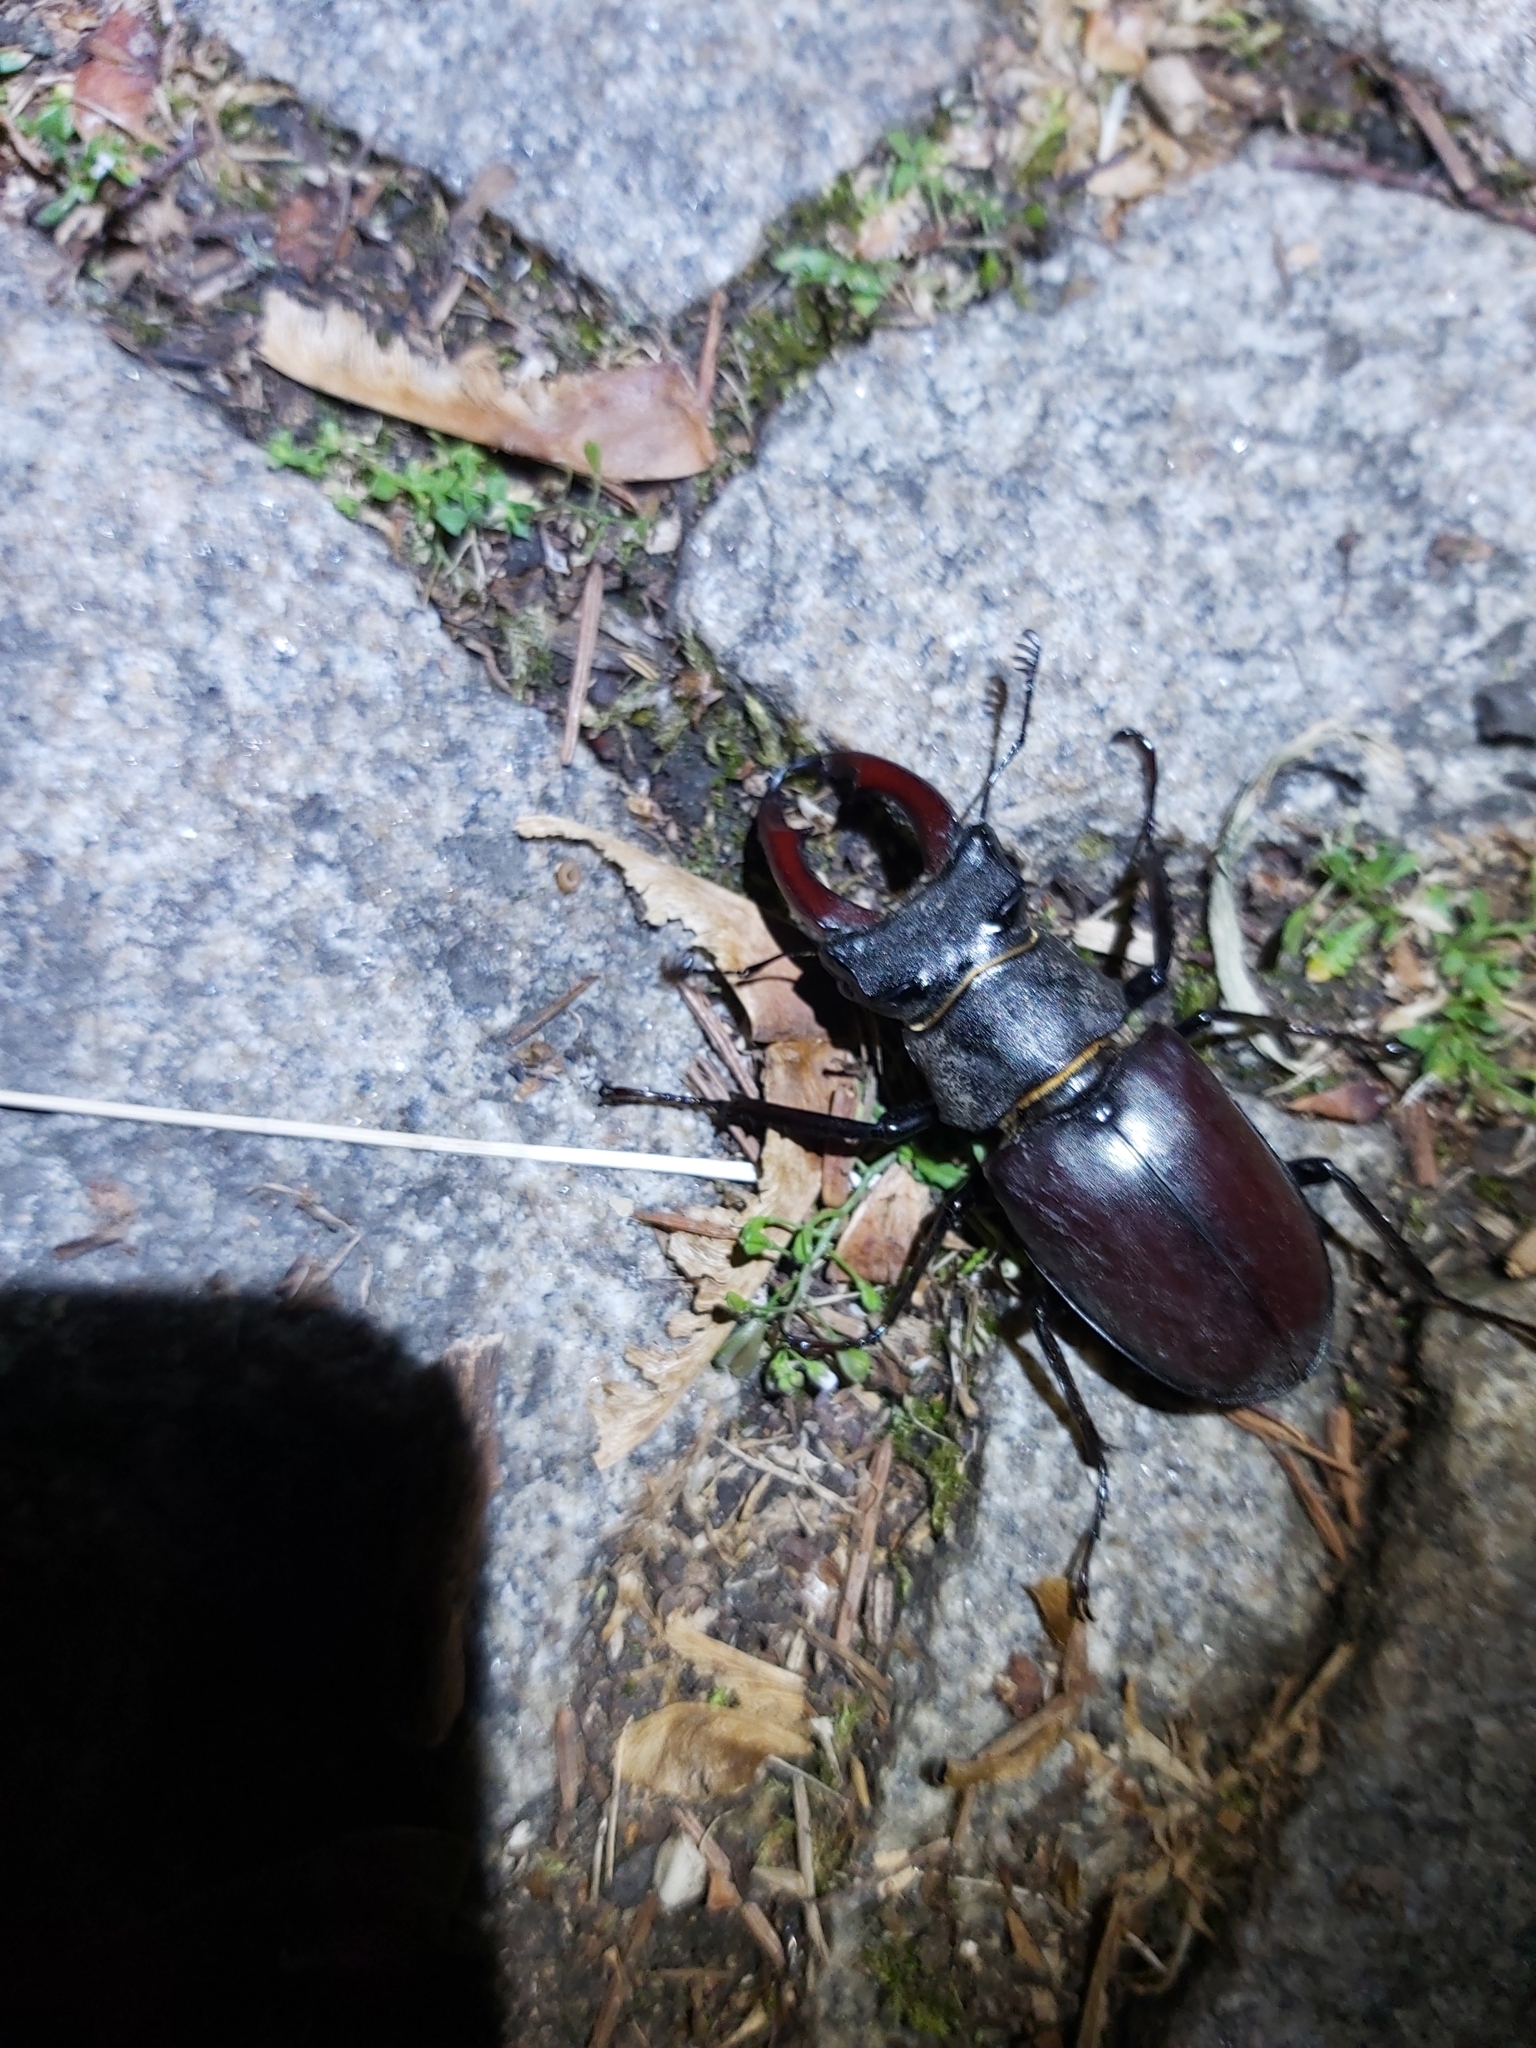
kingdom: Animalia
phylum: Arthropoda
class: Insecta
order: Coleoptera
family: Lucanidae
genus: Lucanus
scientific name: Lucanus cervus
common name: Stag beetle
